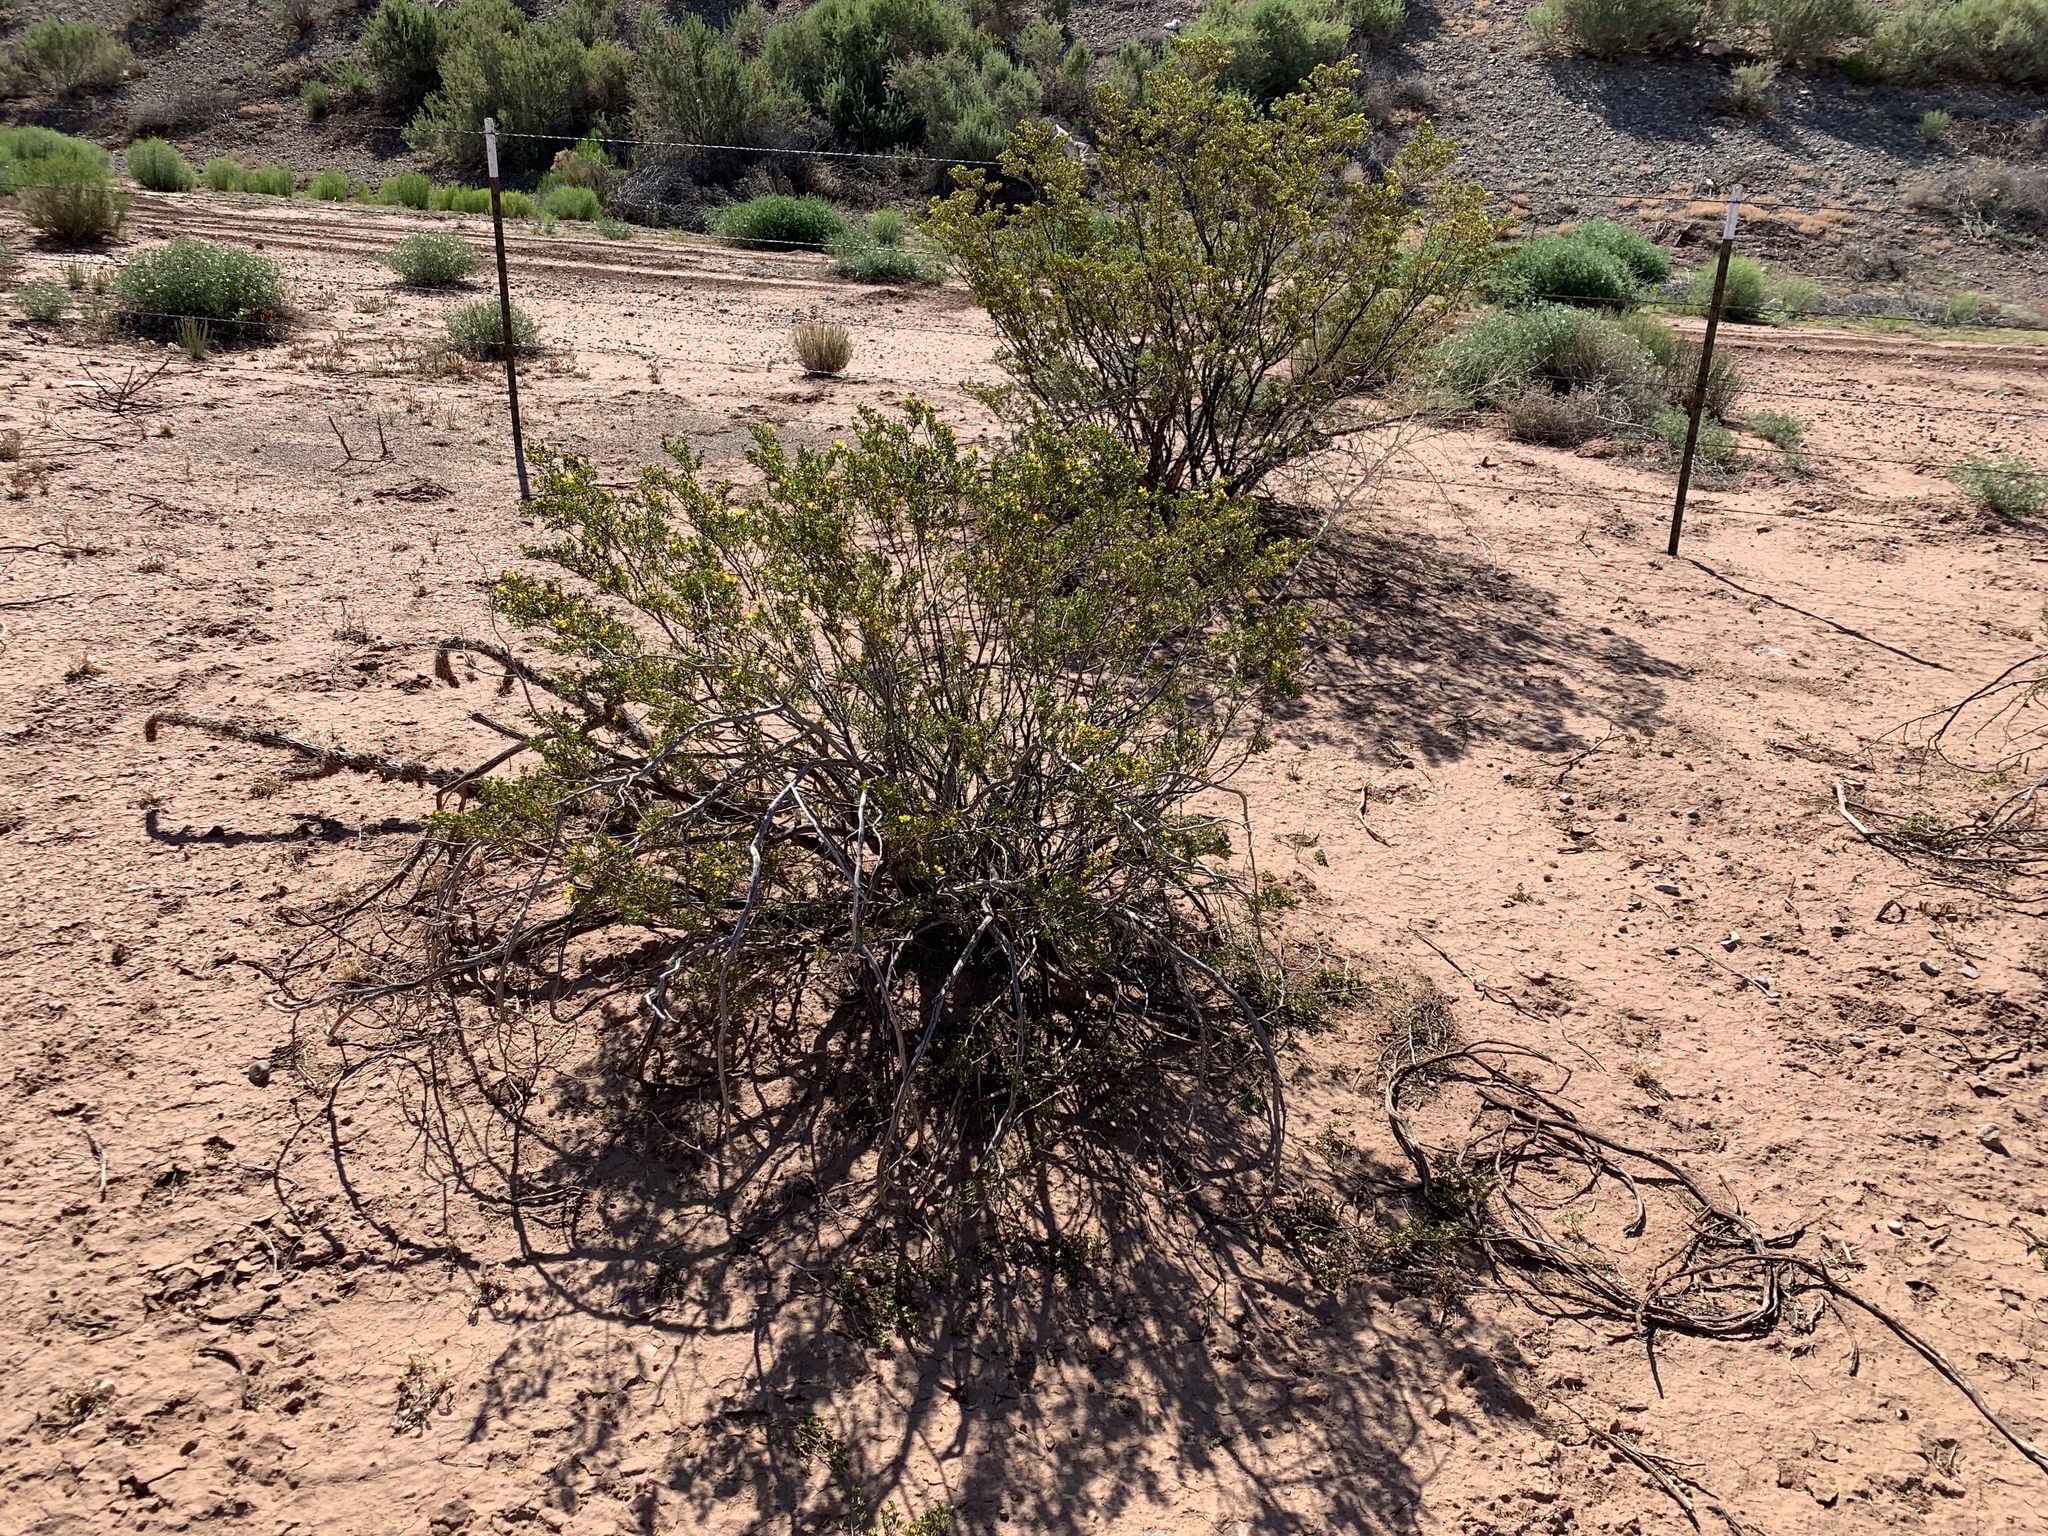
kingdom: Plantae
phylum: Tracheophyta
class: Magnoliopsida
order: Zygophyllales
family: Zygophyllaceae
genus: Larrea
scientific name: Larrea tridentata
